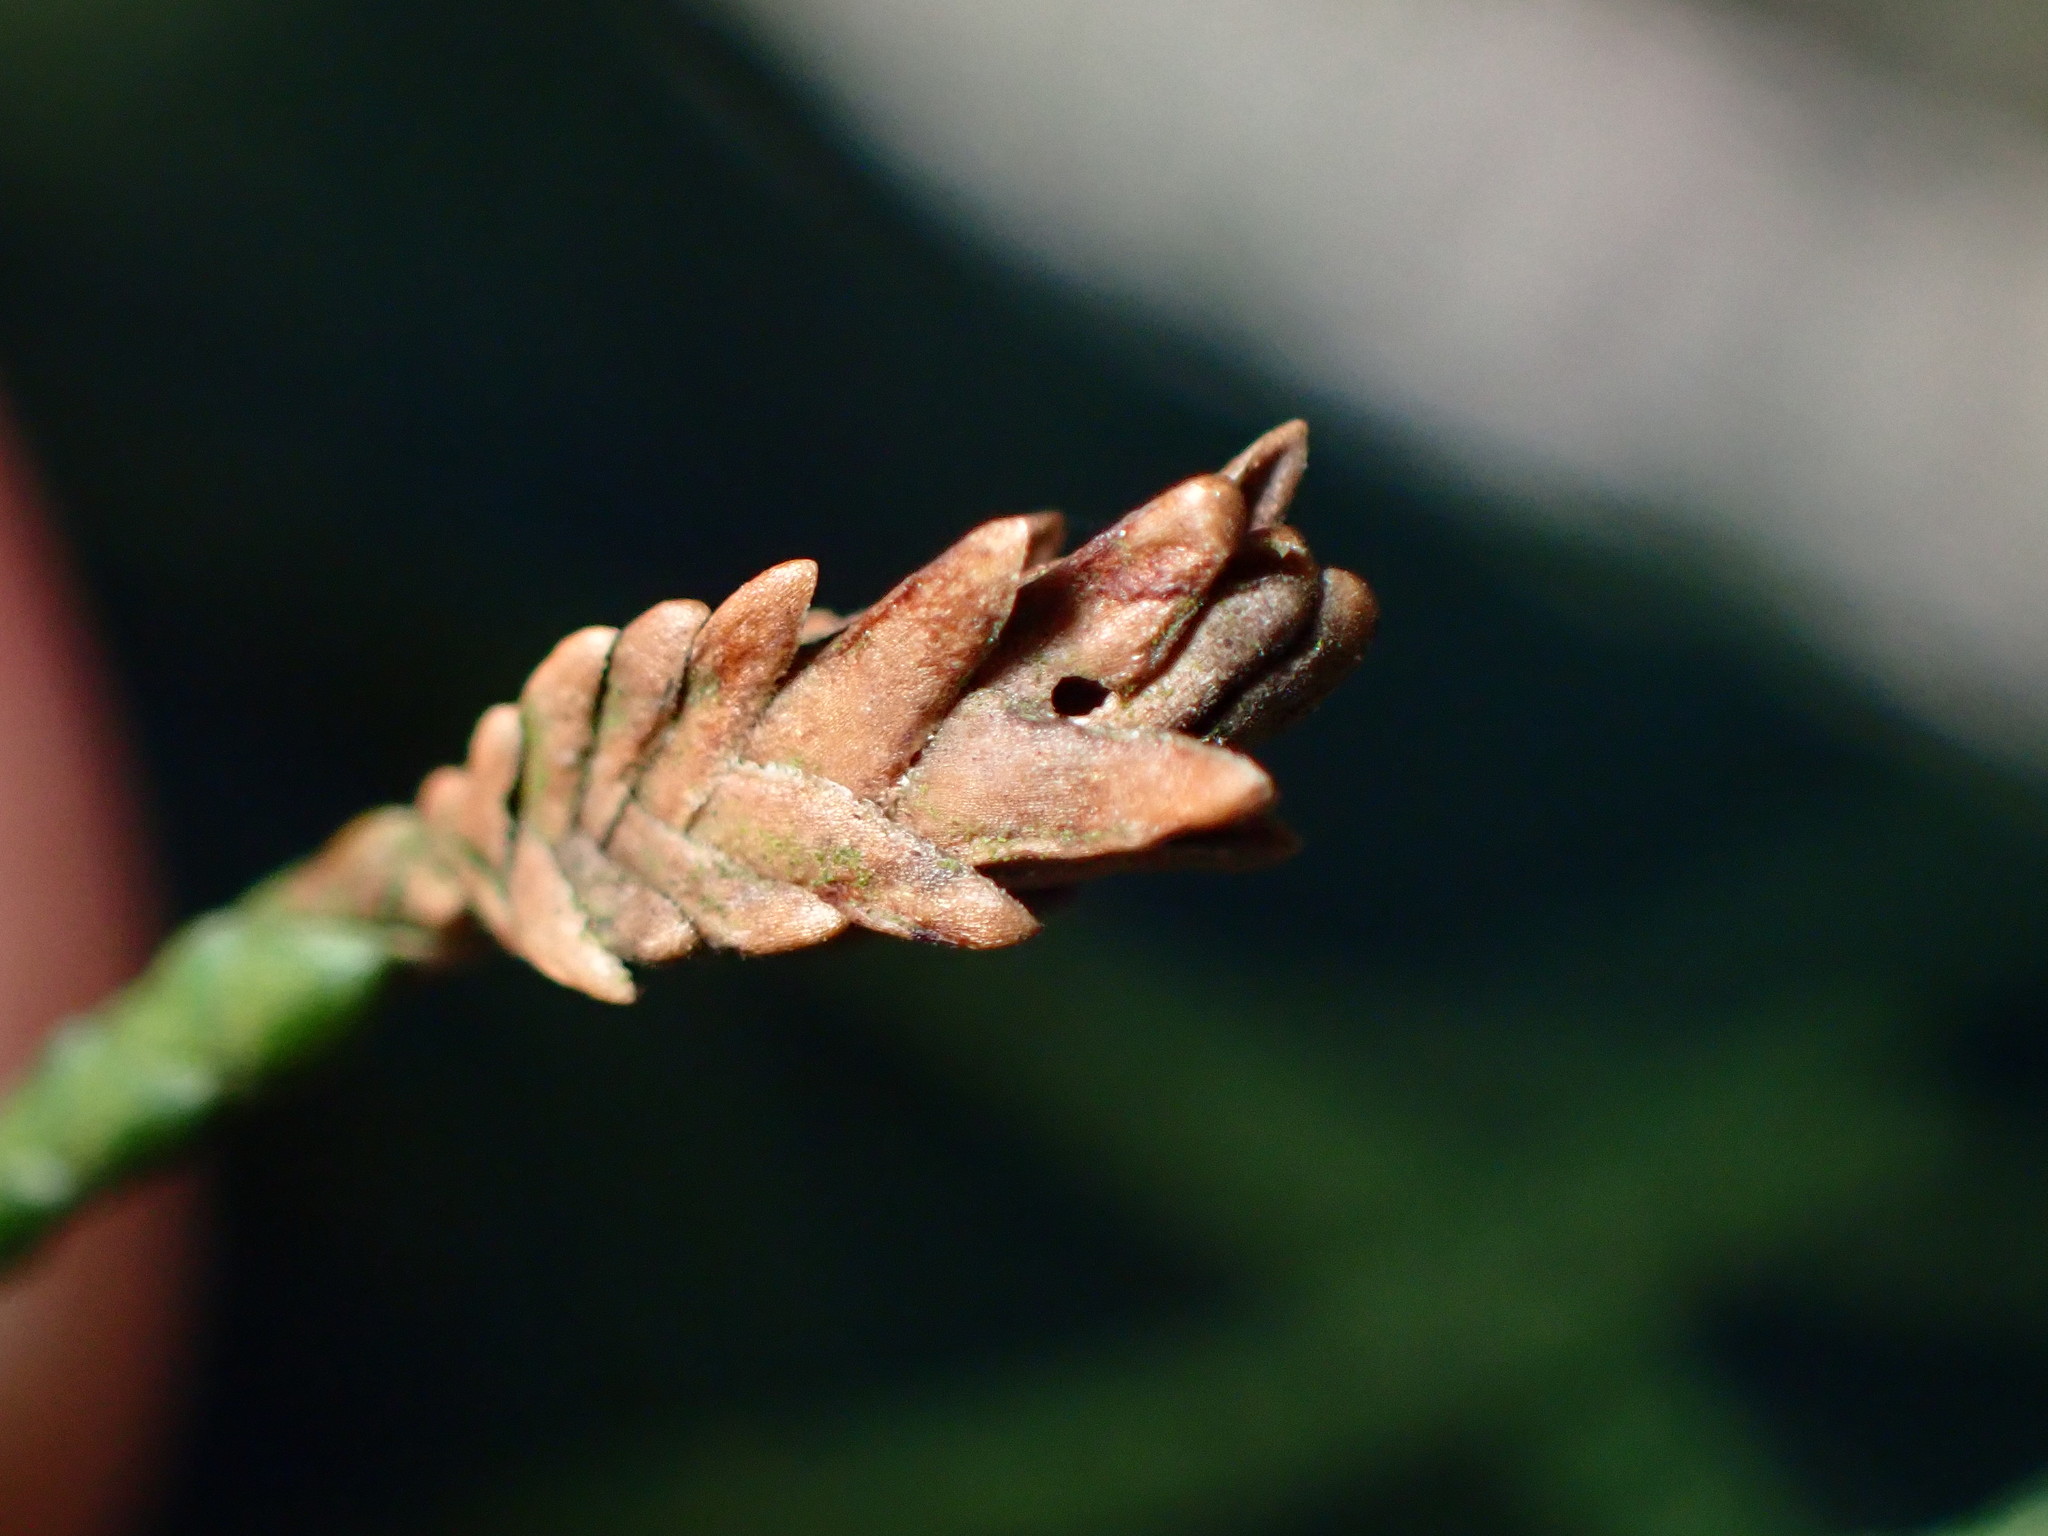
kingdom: Animalia
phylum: Arthropoda
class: Insecta
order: Diptera
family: Cecidomyiidae
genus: Oligotrophus
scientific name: Oligotrophus cupressi
